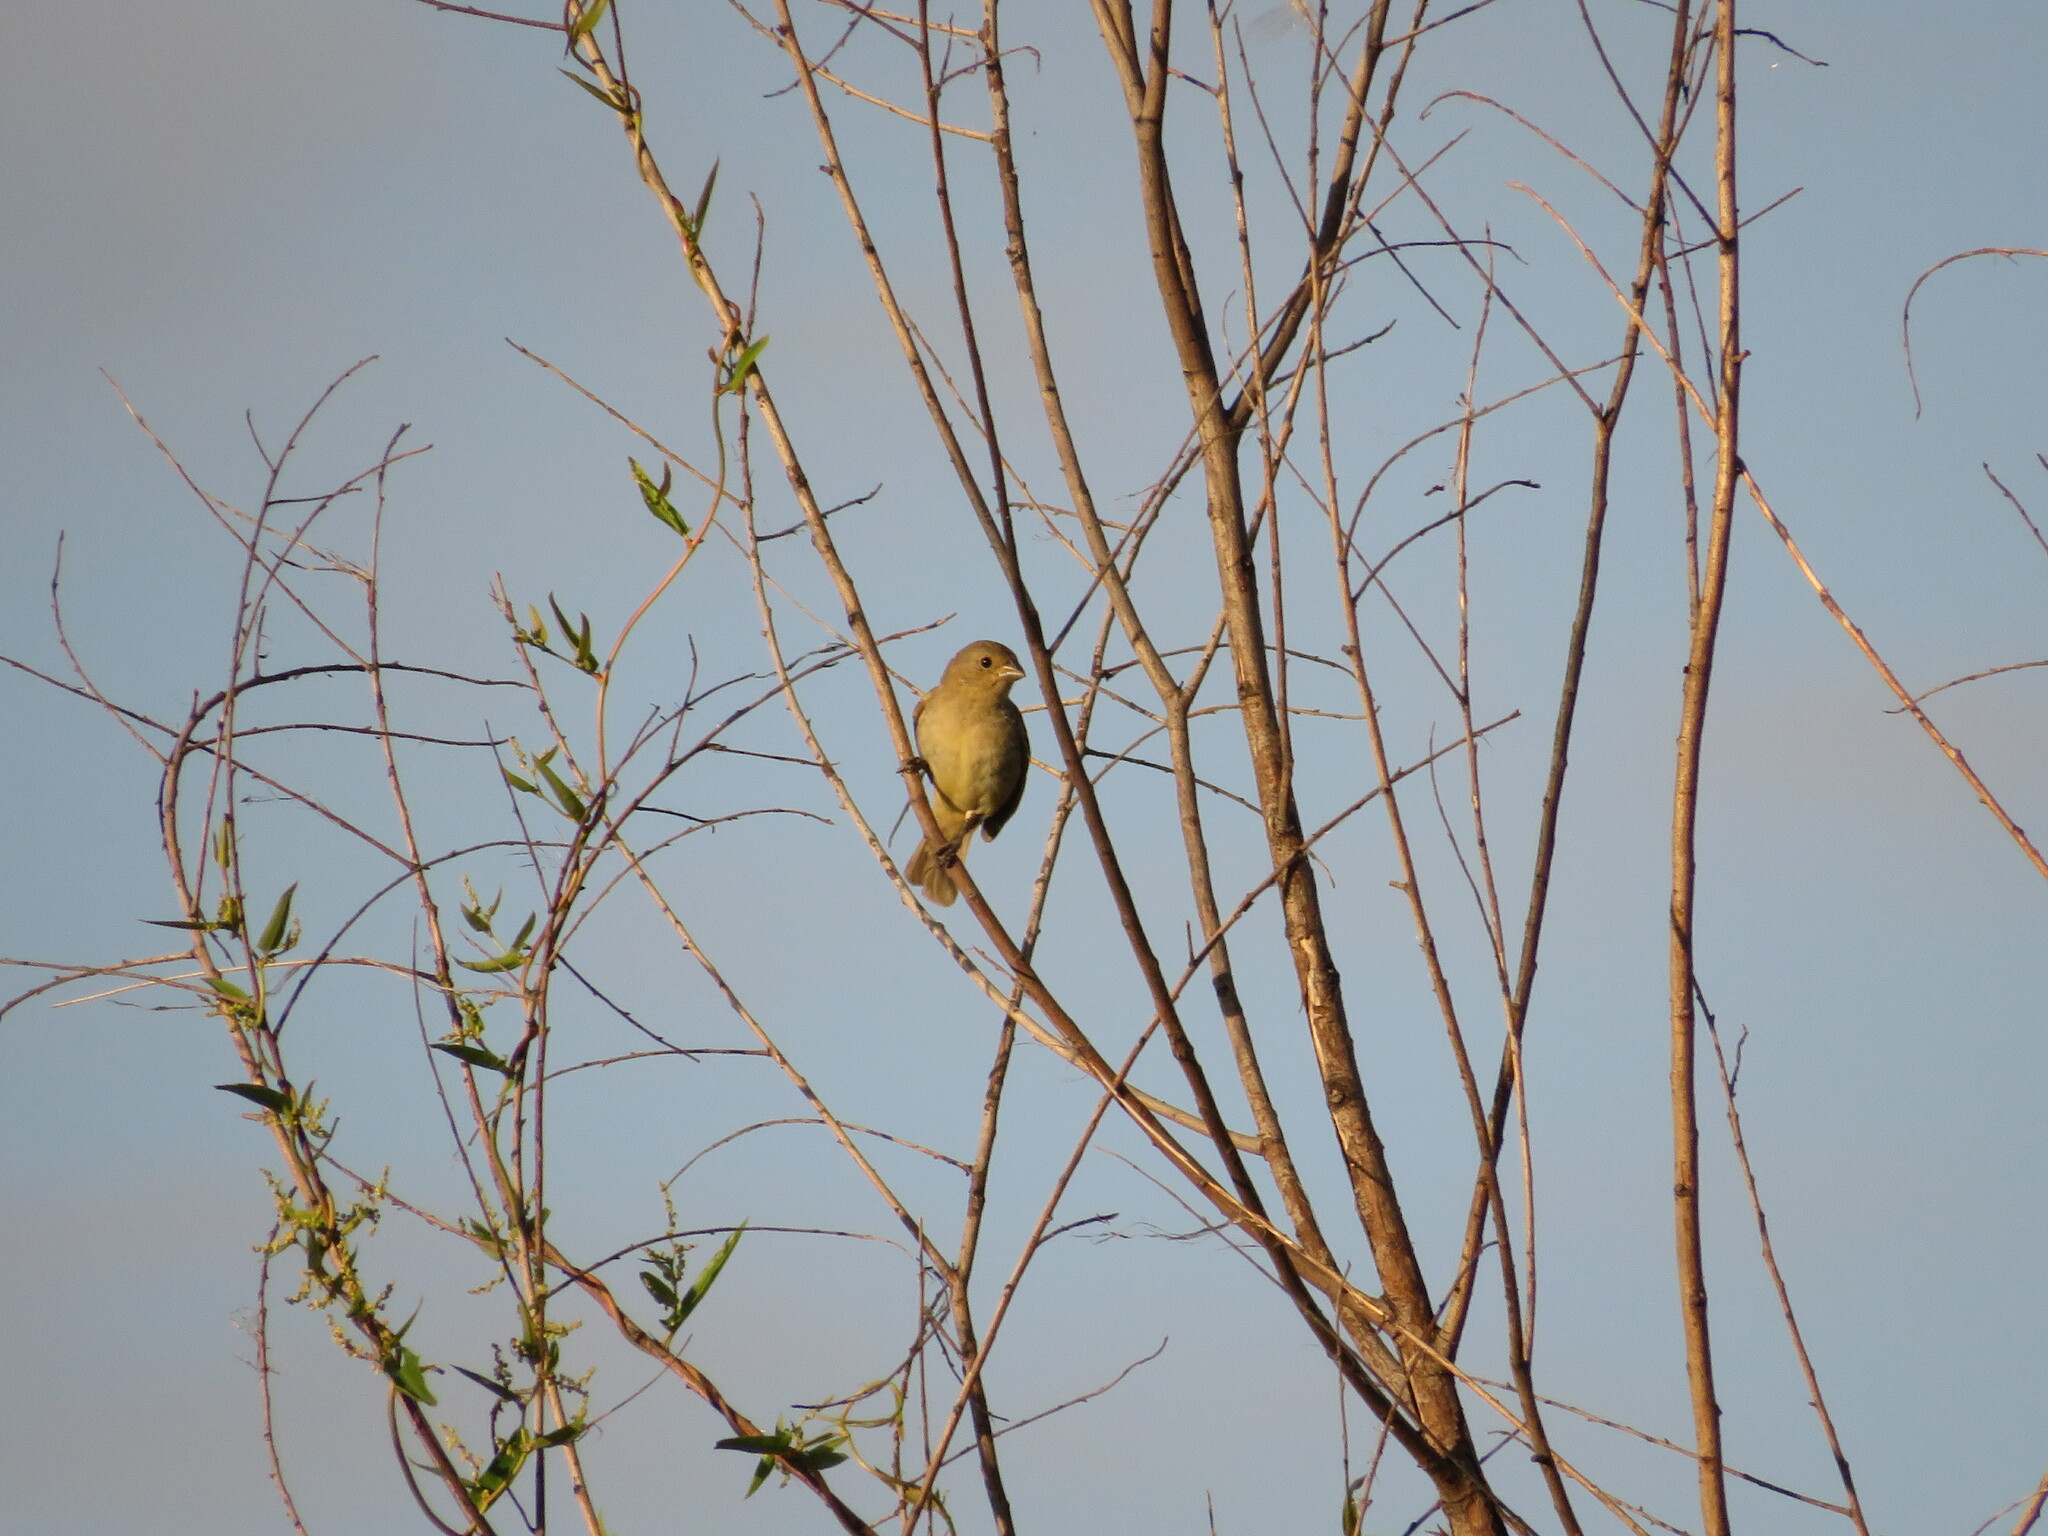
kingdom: Animalia
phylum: Chordata
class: Aves
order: Passeriformes
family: Thraupidae
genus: Sporophila
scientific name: Sporophila caerulescens
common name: Double-collared seedeater
